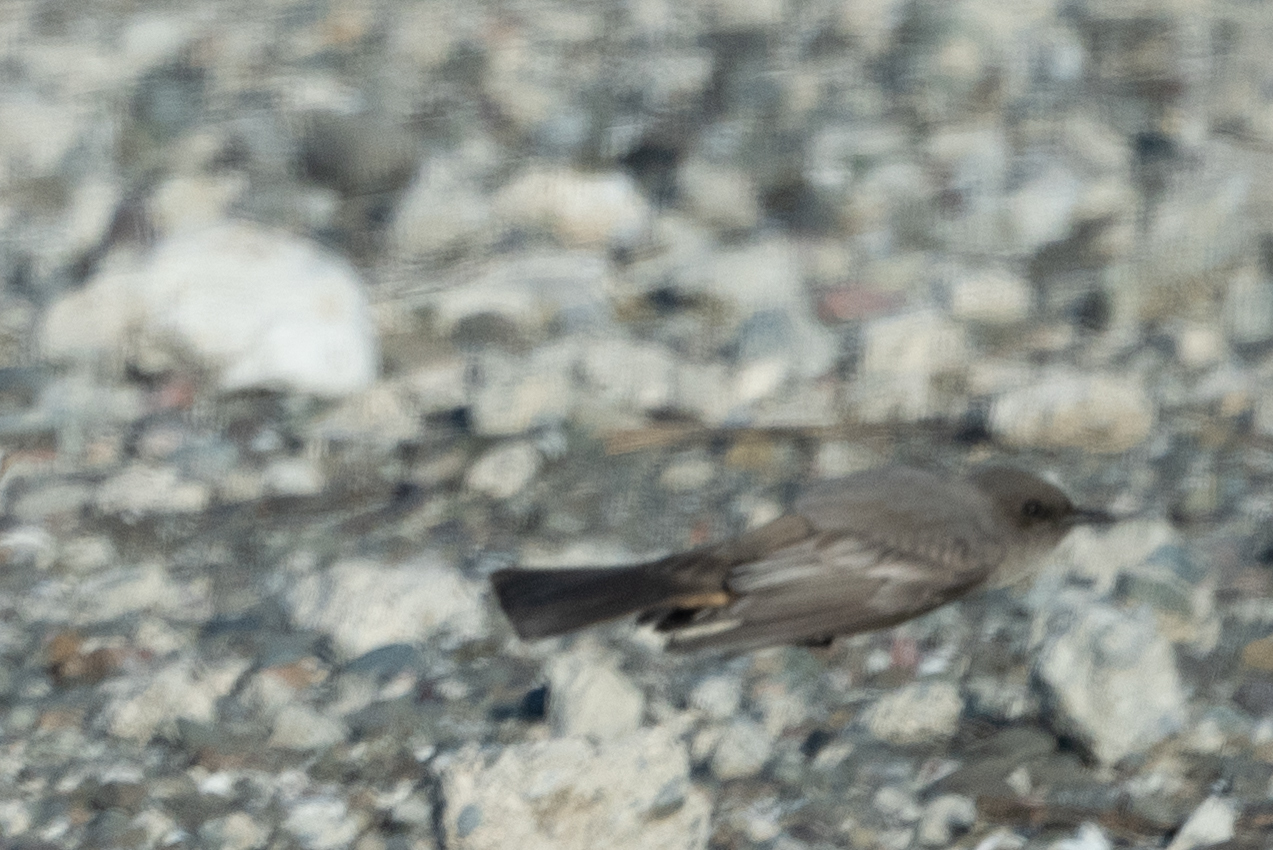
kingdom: Animalia
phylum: Chordata
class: Aves
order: Passeriformes
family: Tyrannidae
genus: Sayornis
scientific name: Sayornis saya
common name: Say's phoebe
